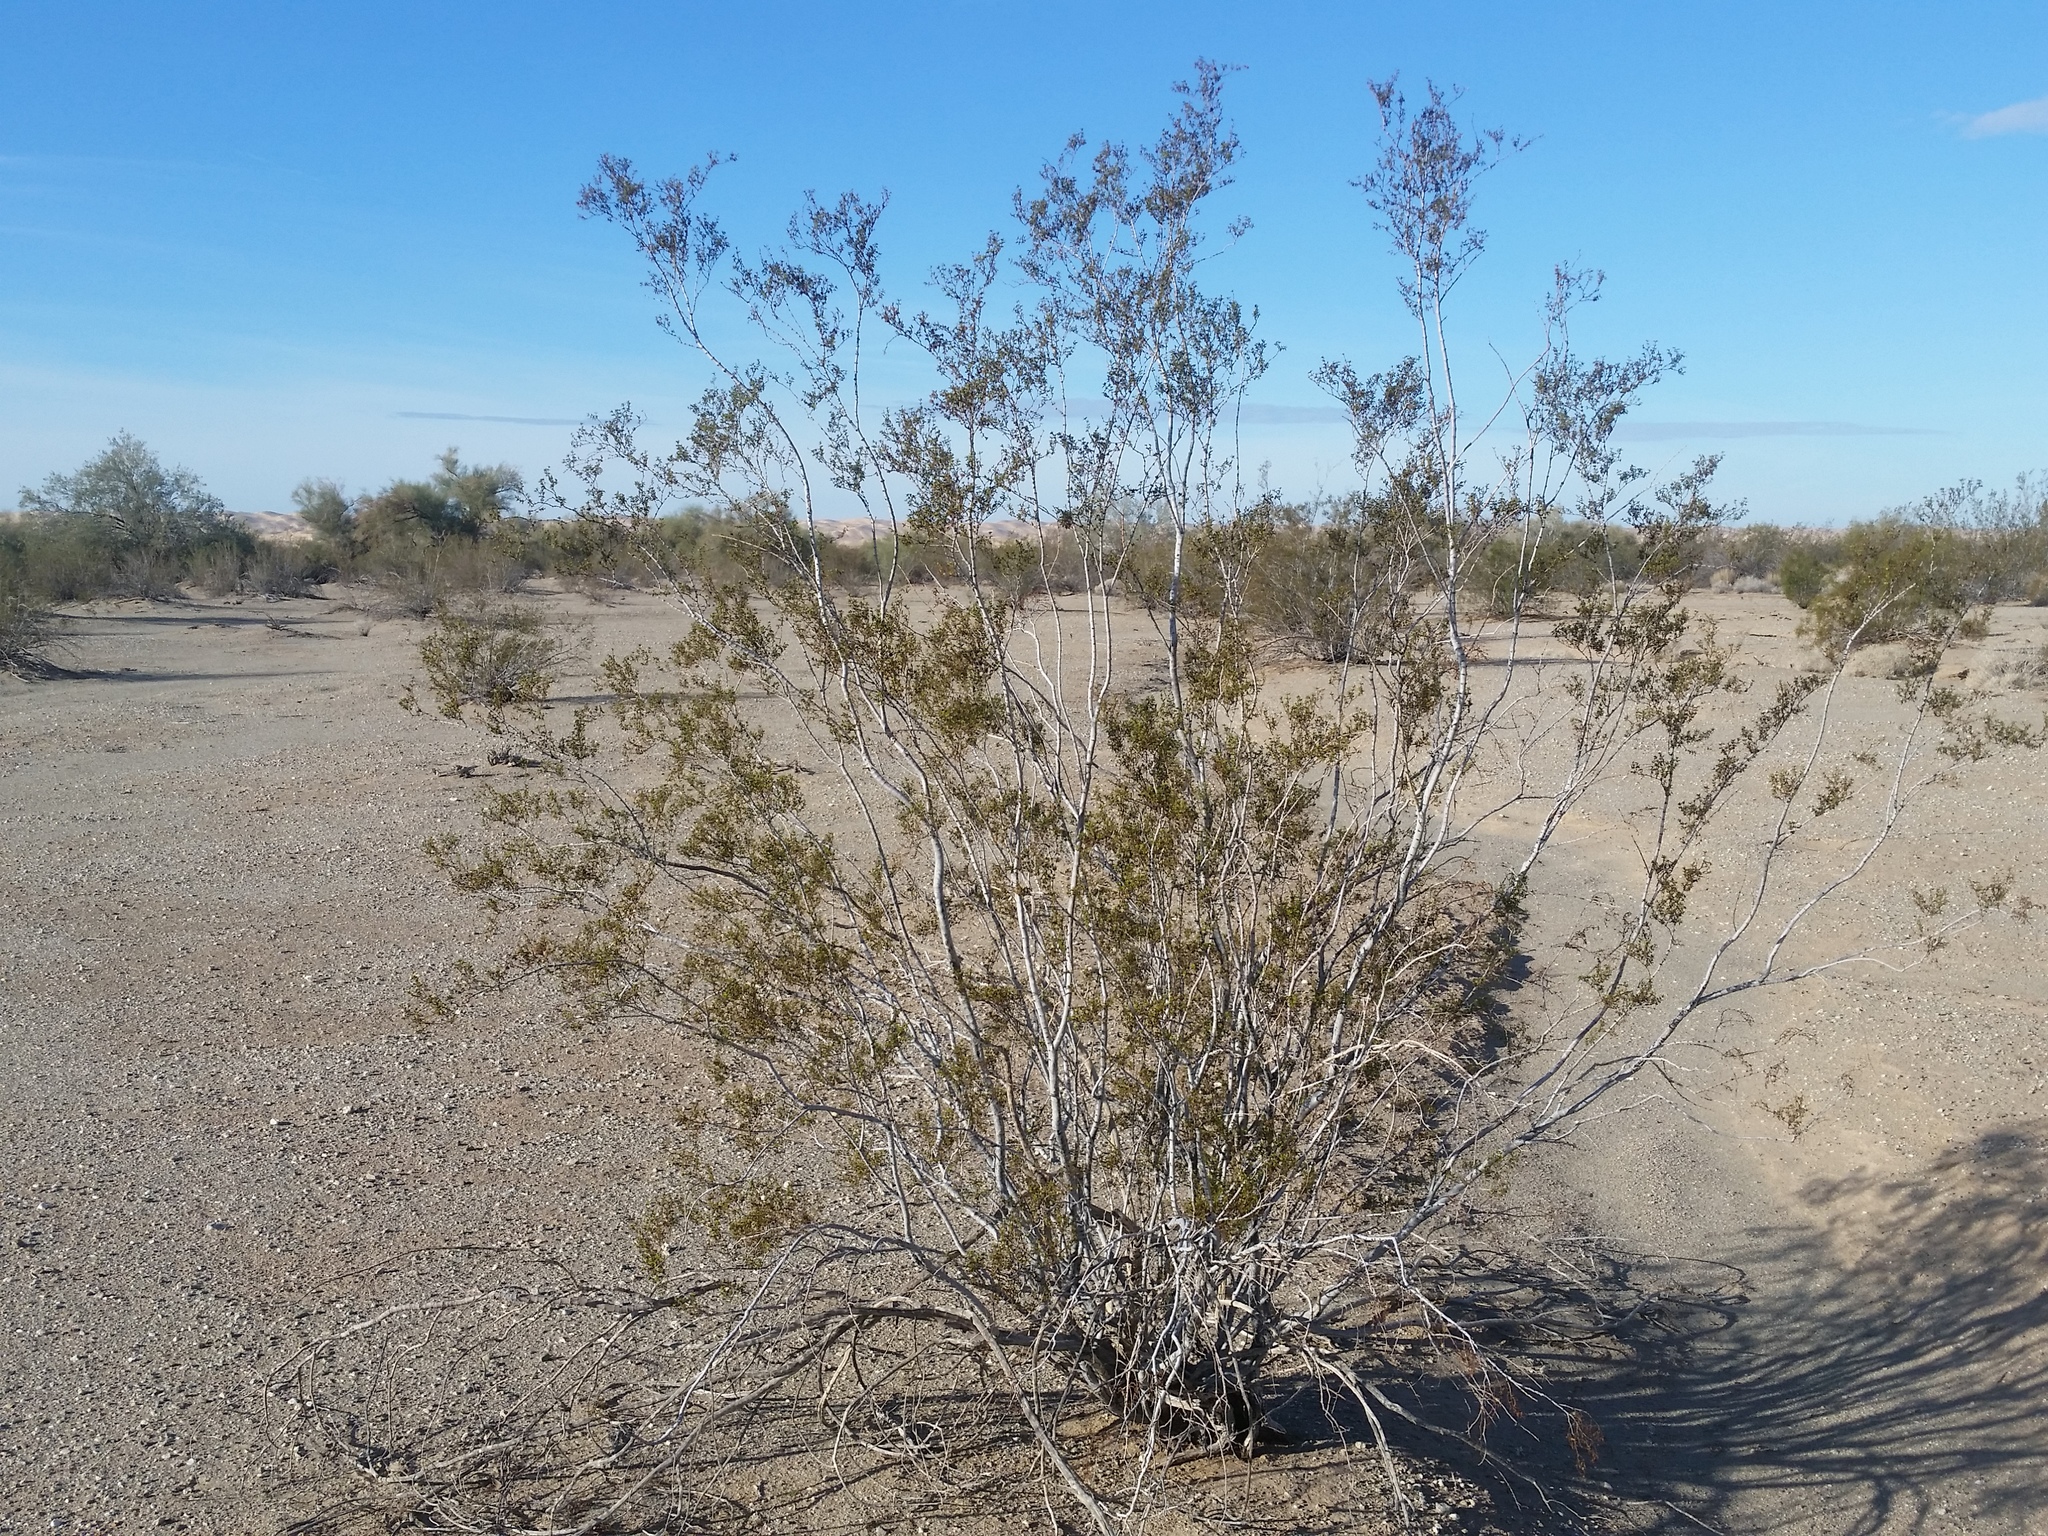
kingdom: Plantae
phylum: Tracheophyta
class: Magnoliopsida
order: Zygophyllales
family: Zygophyllaceae
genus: Larrea
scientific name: Larrea tridentata
